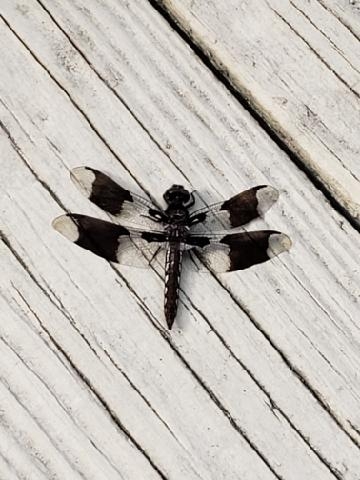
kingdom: Animalia
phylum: Arthropoda
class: Insecta
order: Odonata
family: Libellulidae
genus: Plathemis
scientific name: Plathemis lydia
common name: Common whitetail
